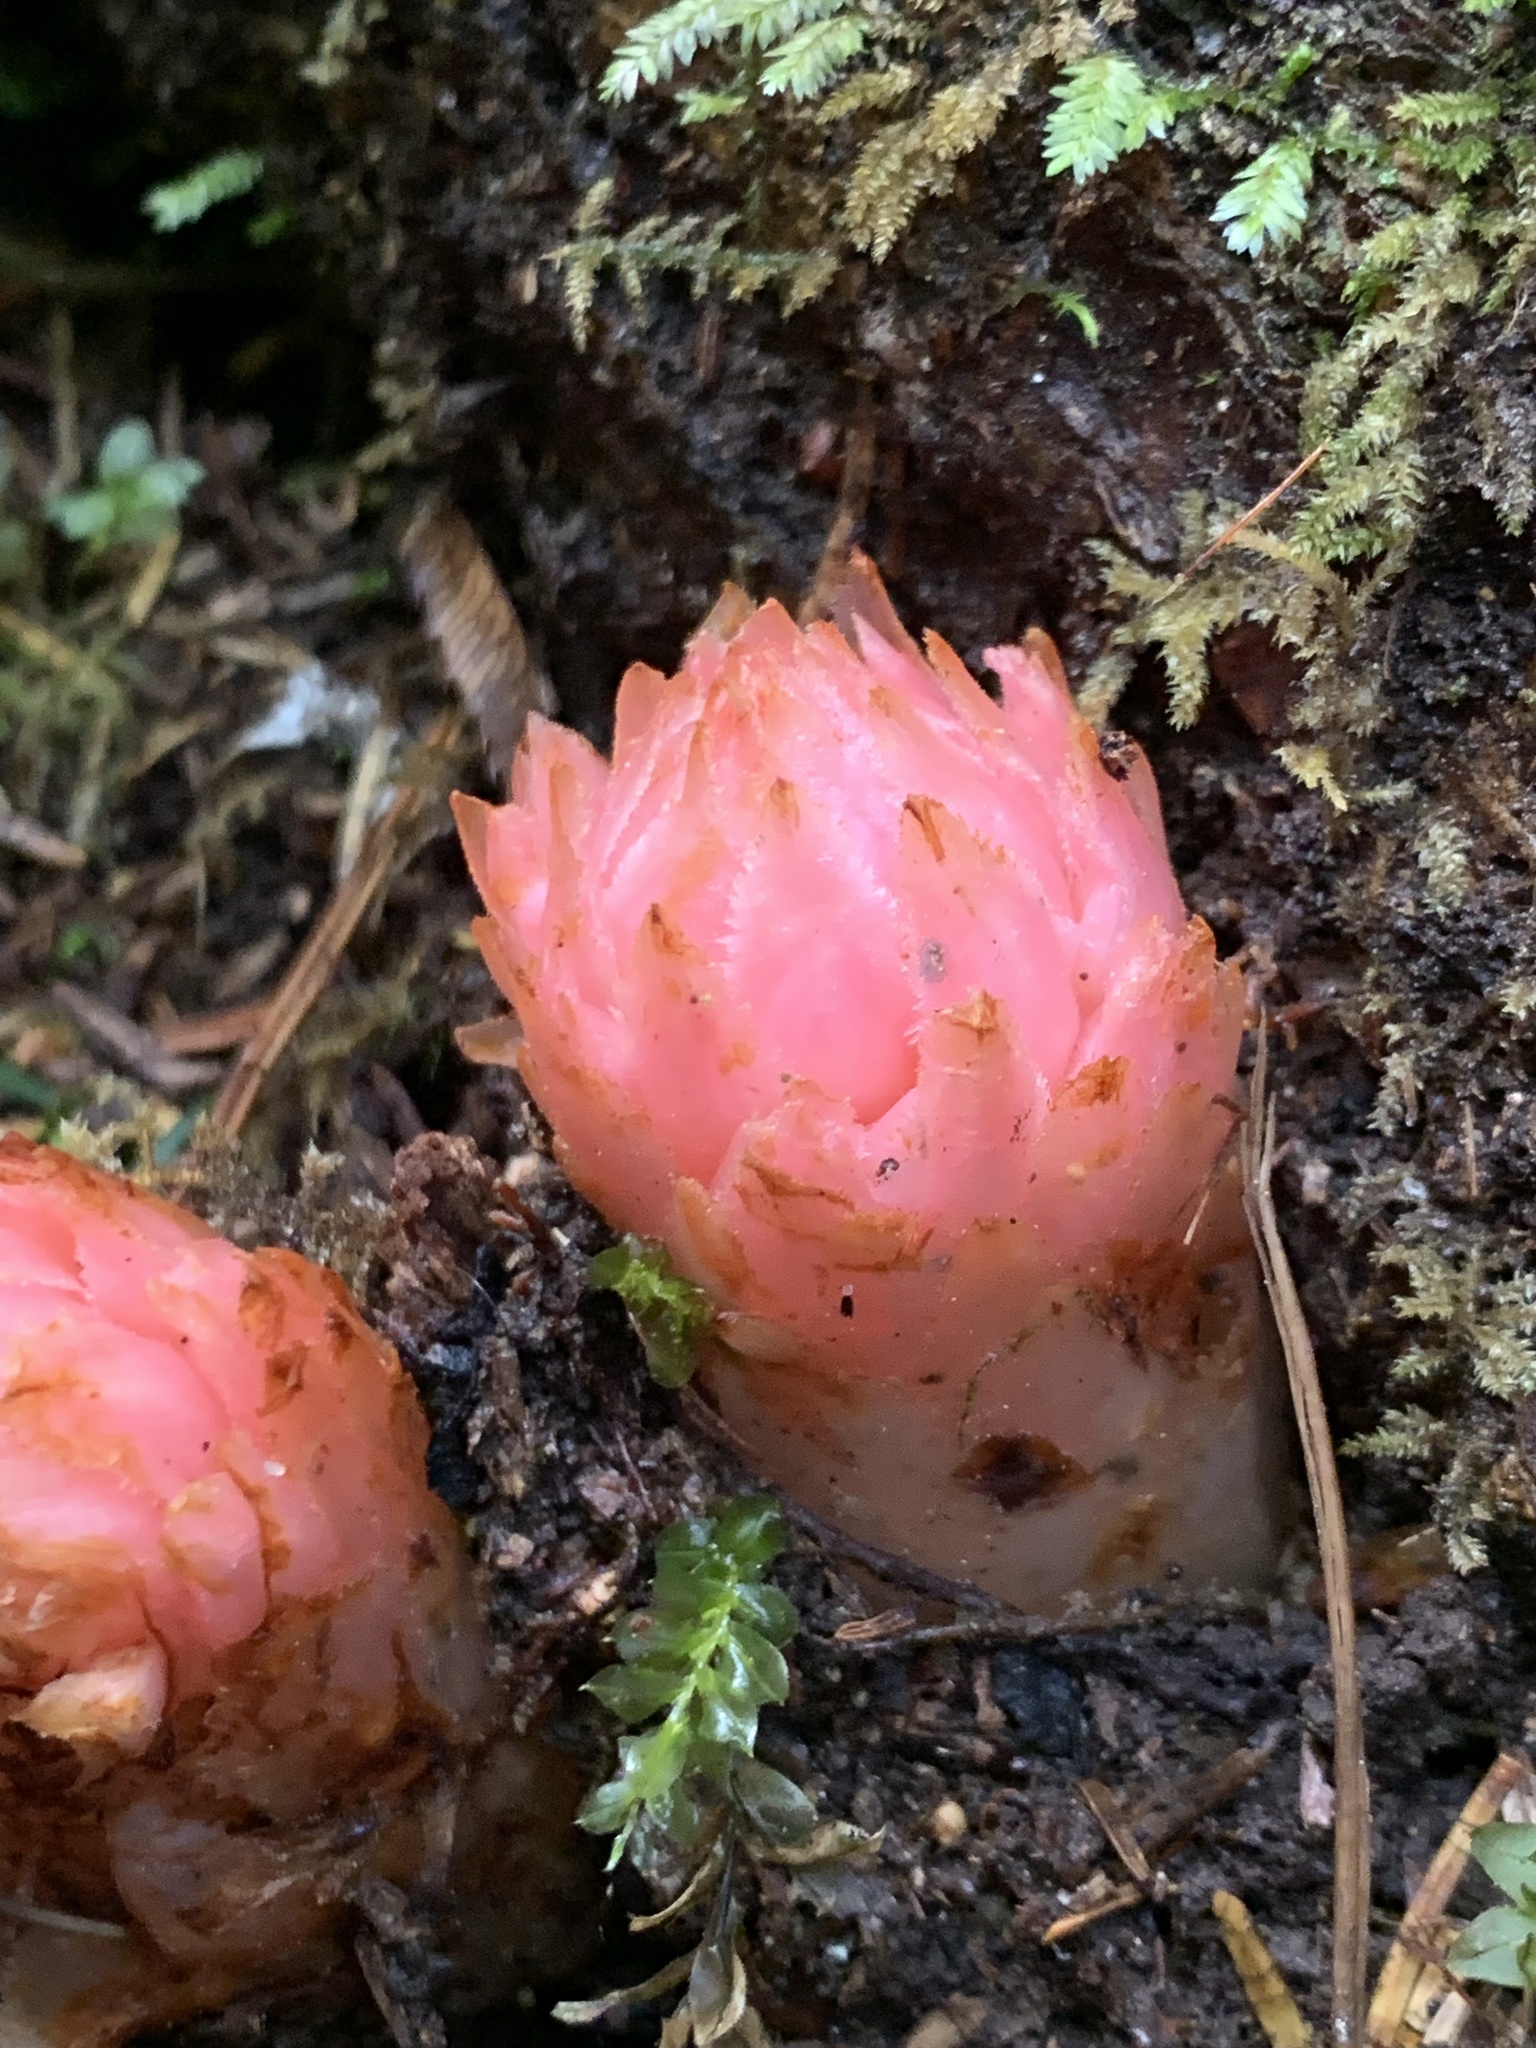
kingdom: Plantae
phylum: Tracheophyta
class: Magnoliopsida
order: Ericales
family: Ericaceae
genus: Hemitomes
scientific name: Hemitomes congestum
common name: Cone plant
